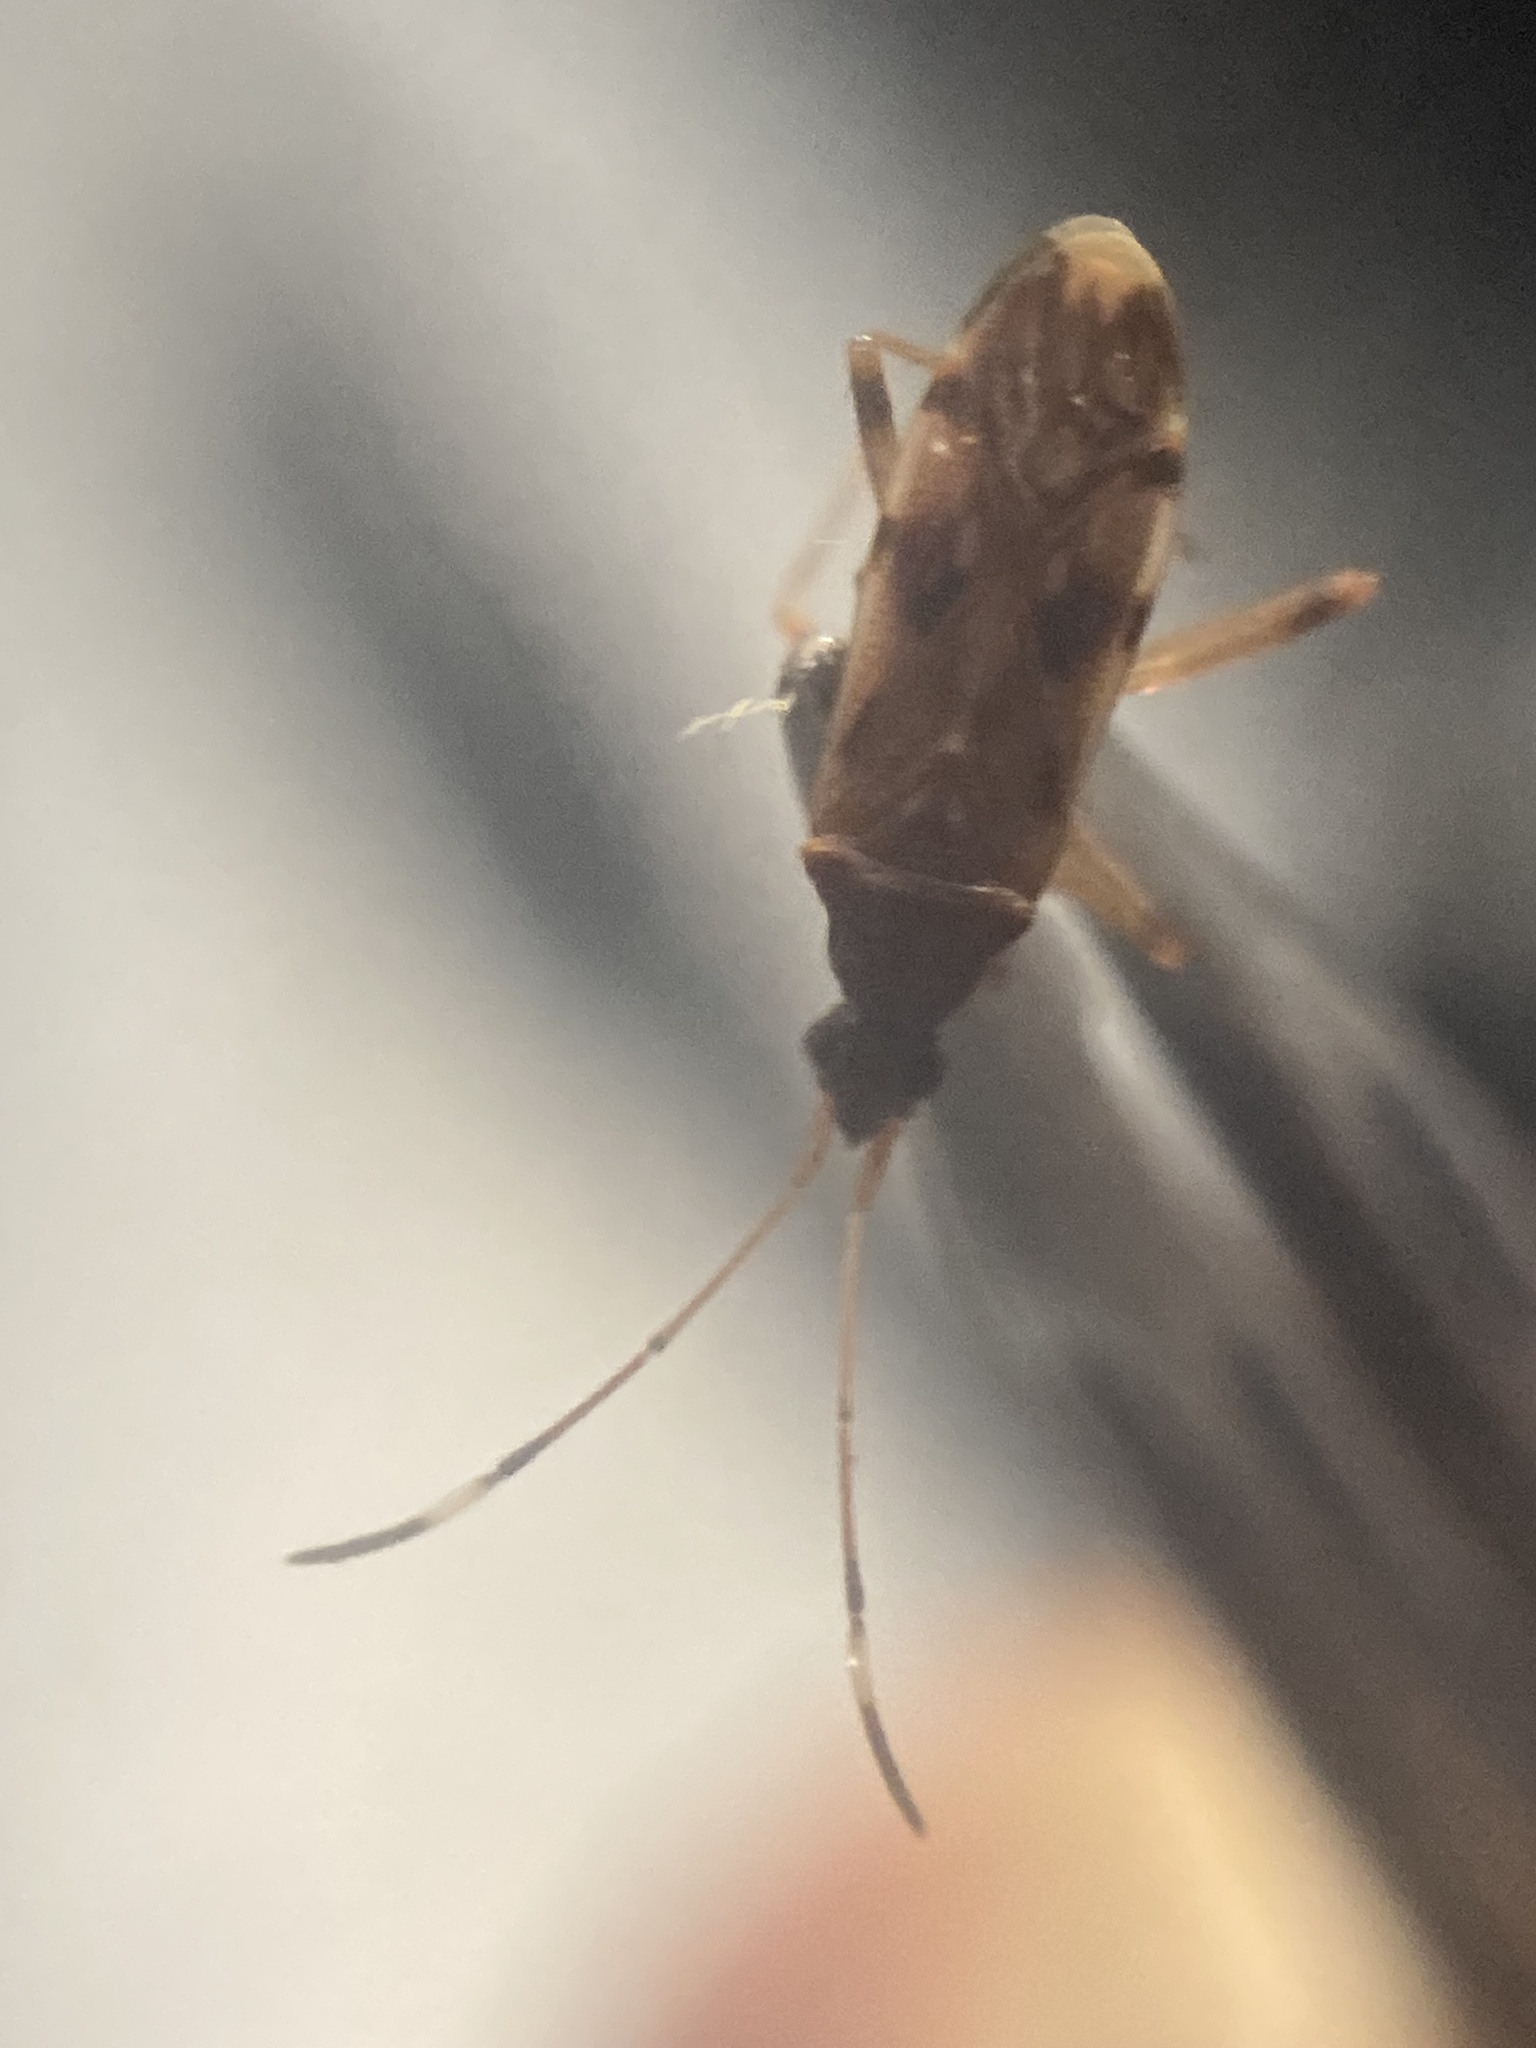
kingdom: Animalia
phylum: Arthropoda
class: Insecta
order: Hemiptera
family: Rhyparochromidae
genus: Ozophora
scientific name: Ozophora picturata
